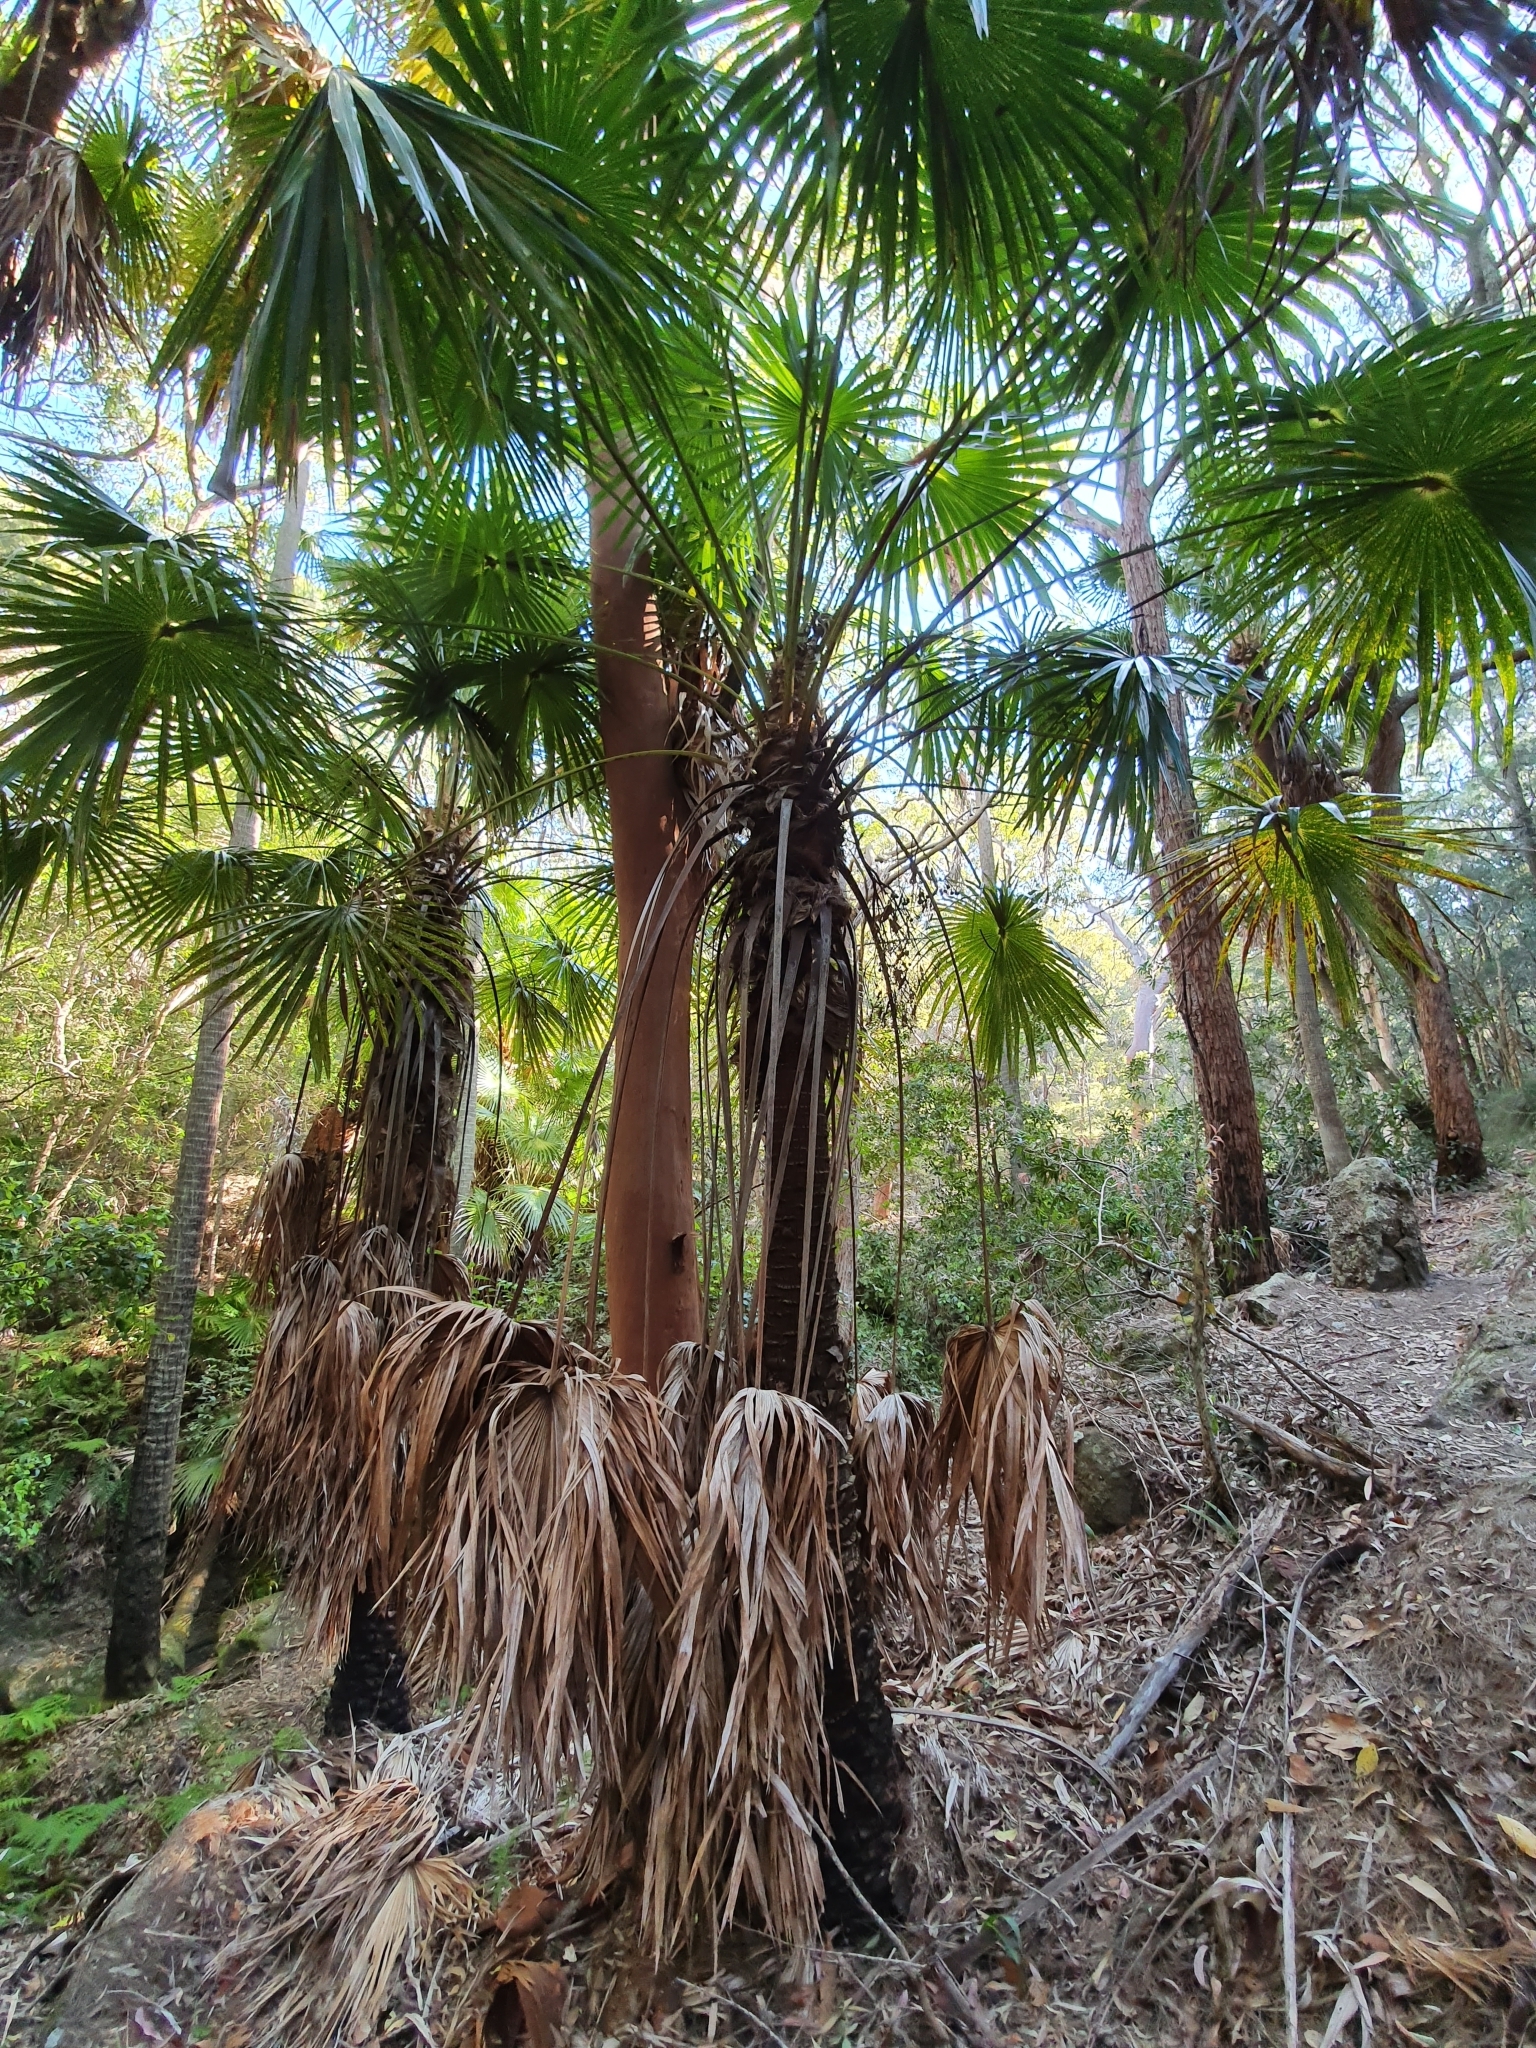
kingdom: Plantae
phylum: Tracheophyta
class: Liliopsida
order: Arecales
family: Arecaceae
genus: Livistona
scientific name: Livistona australis
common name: Cabbage fan palm
